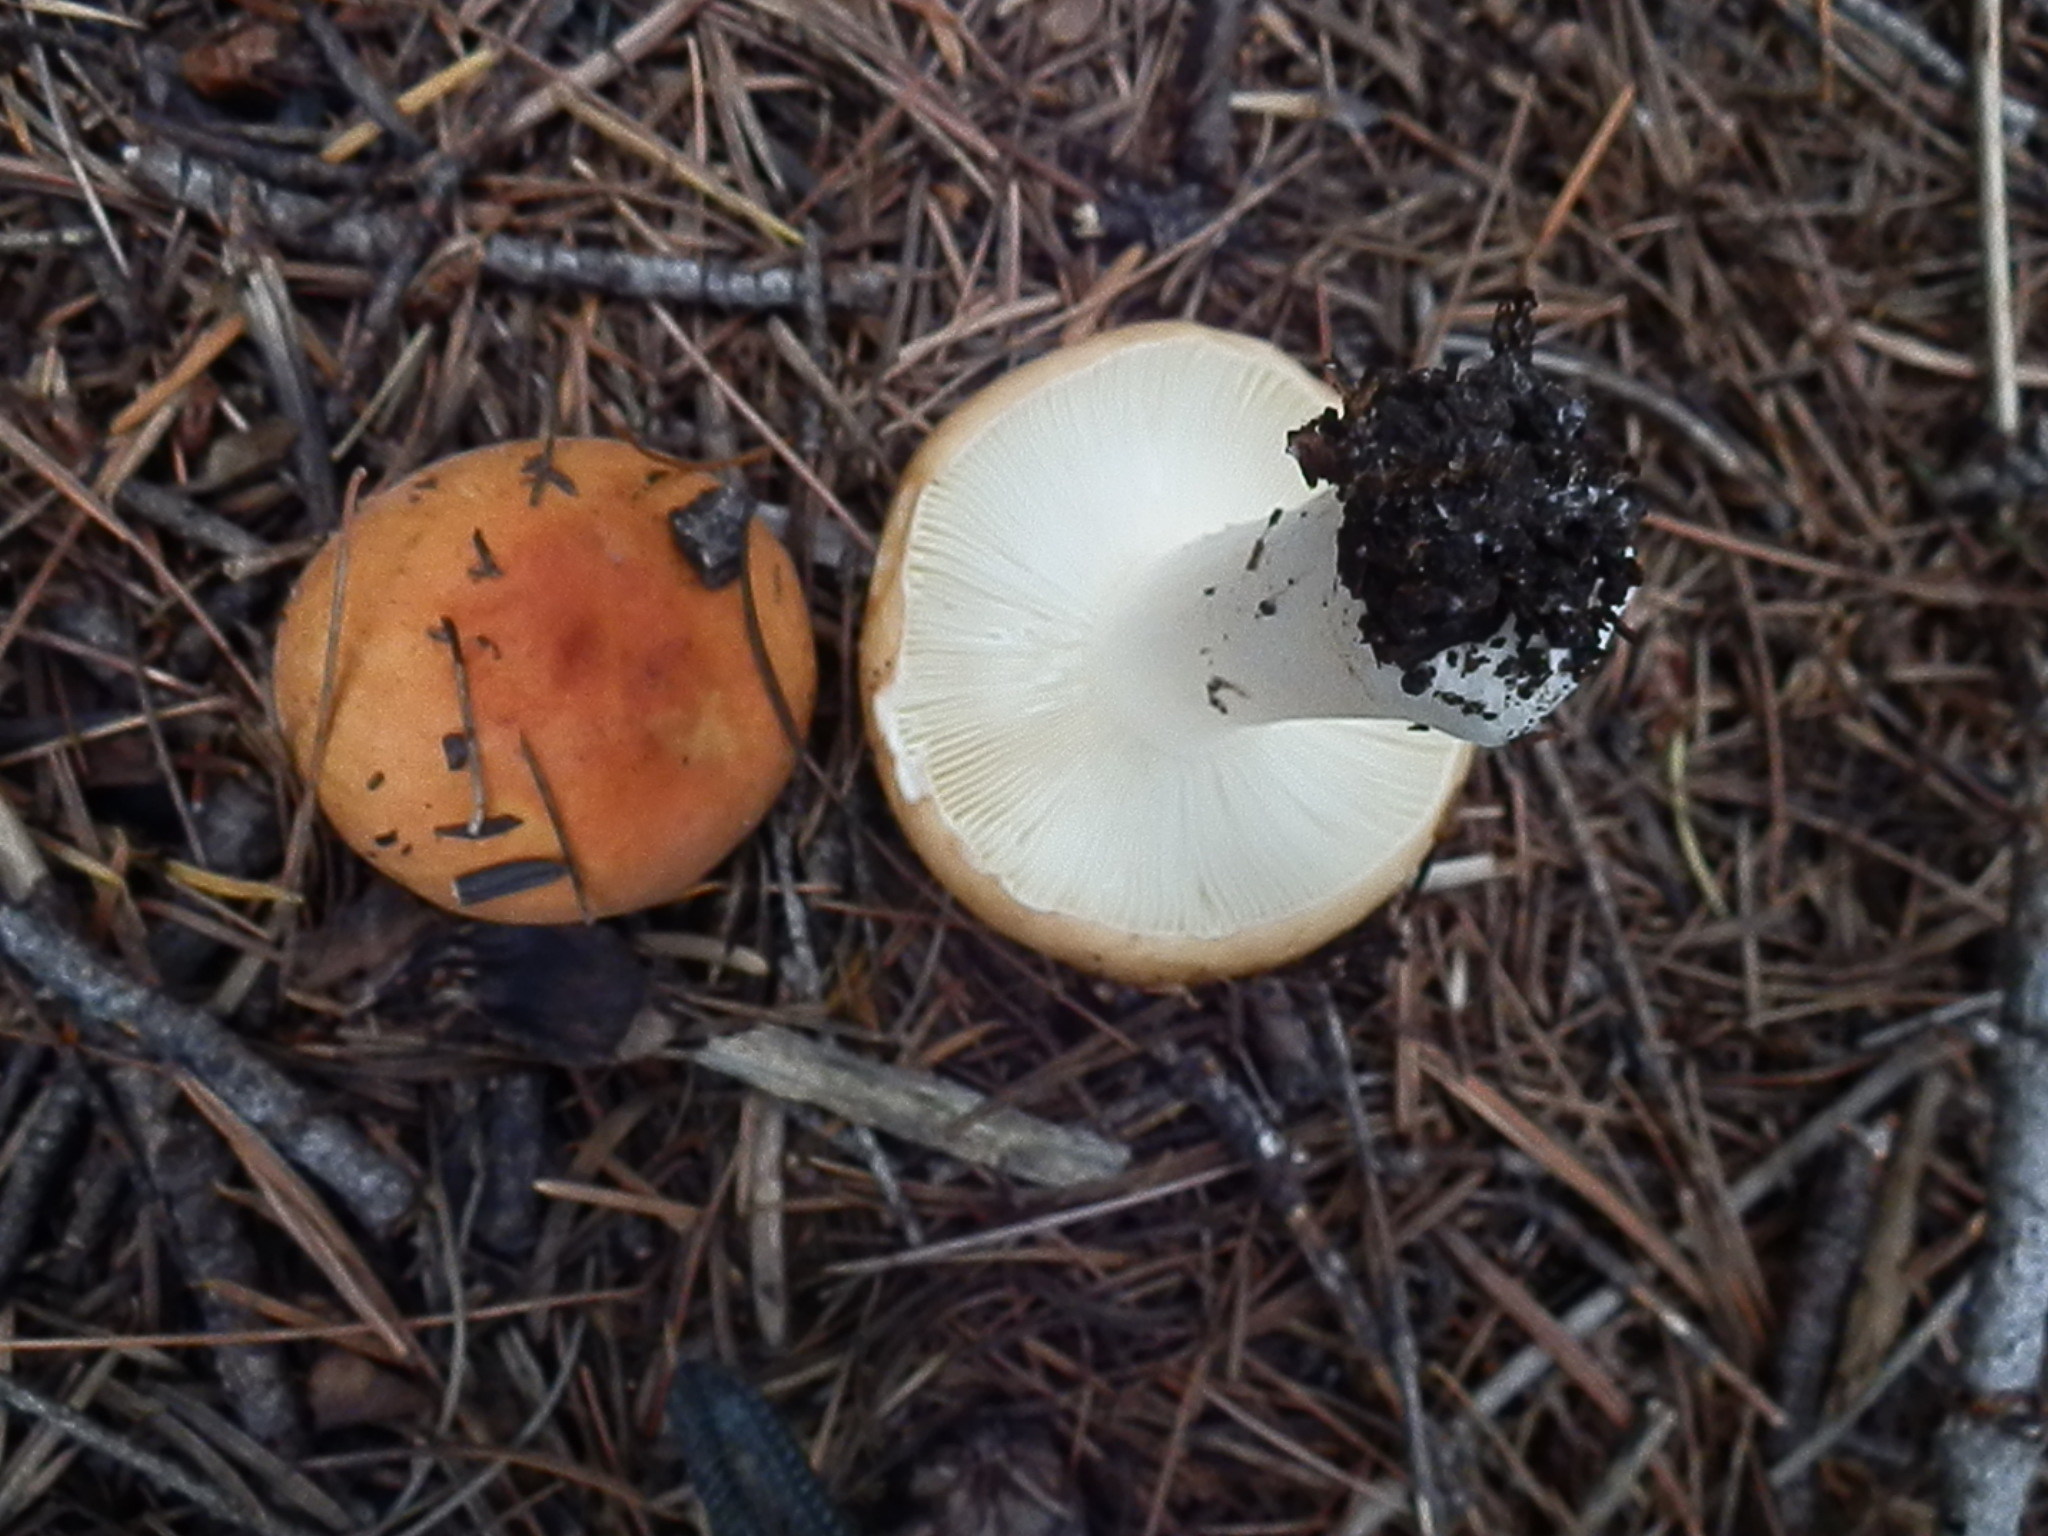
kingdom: Fungi
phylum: Basidiomycota
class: Agaricomycetes
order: Russulales
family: Russulaceae
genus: Russula
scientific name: Russula xerampelina
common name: Crab brittlegill
